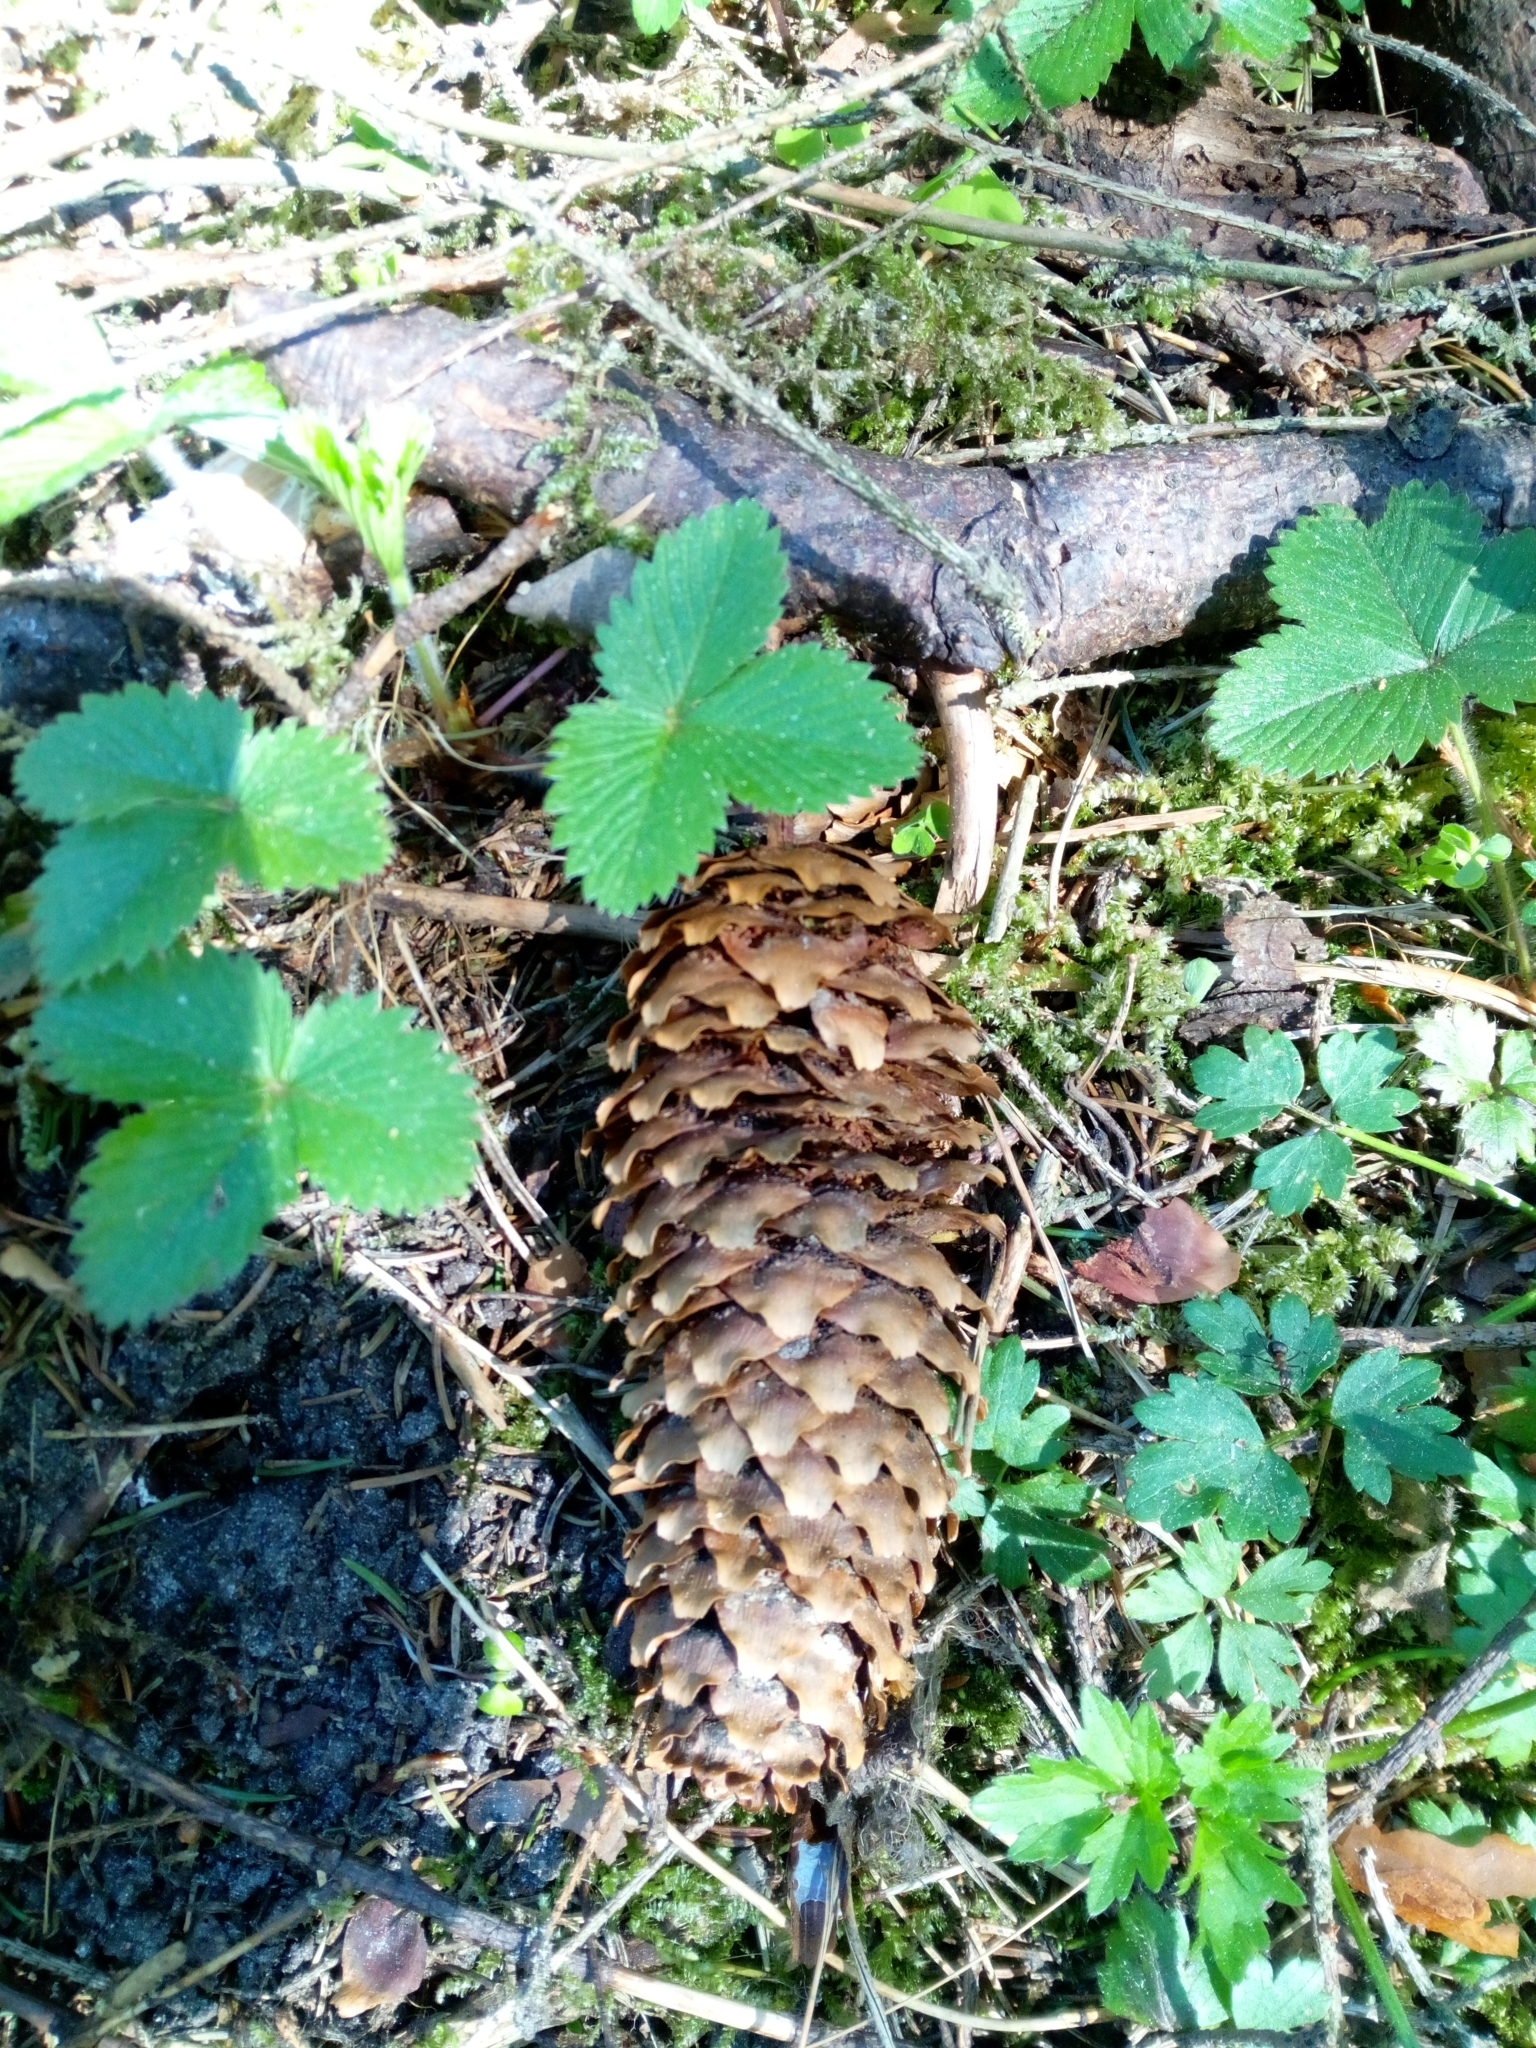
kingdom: Plantae
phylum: Tracheophyta
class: Pinopsida
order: Pinales
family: Pinaceae
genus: Picea
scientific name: Picea abies
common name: Norway spruce
